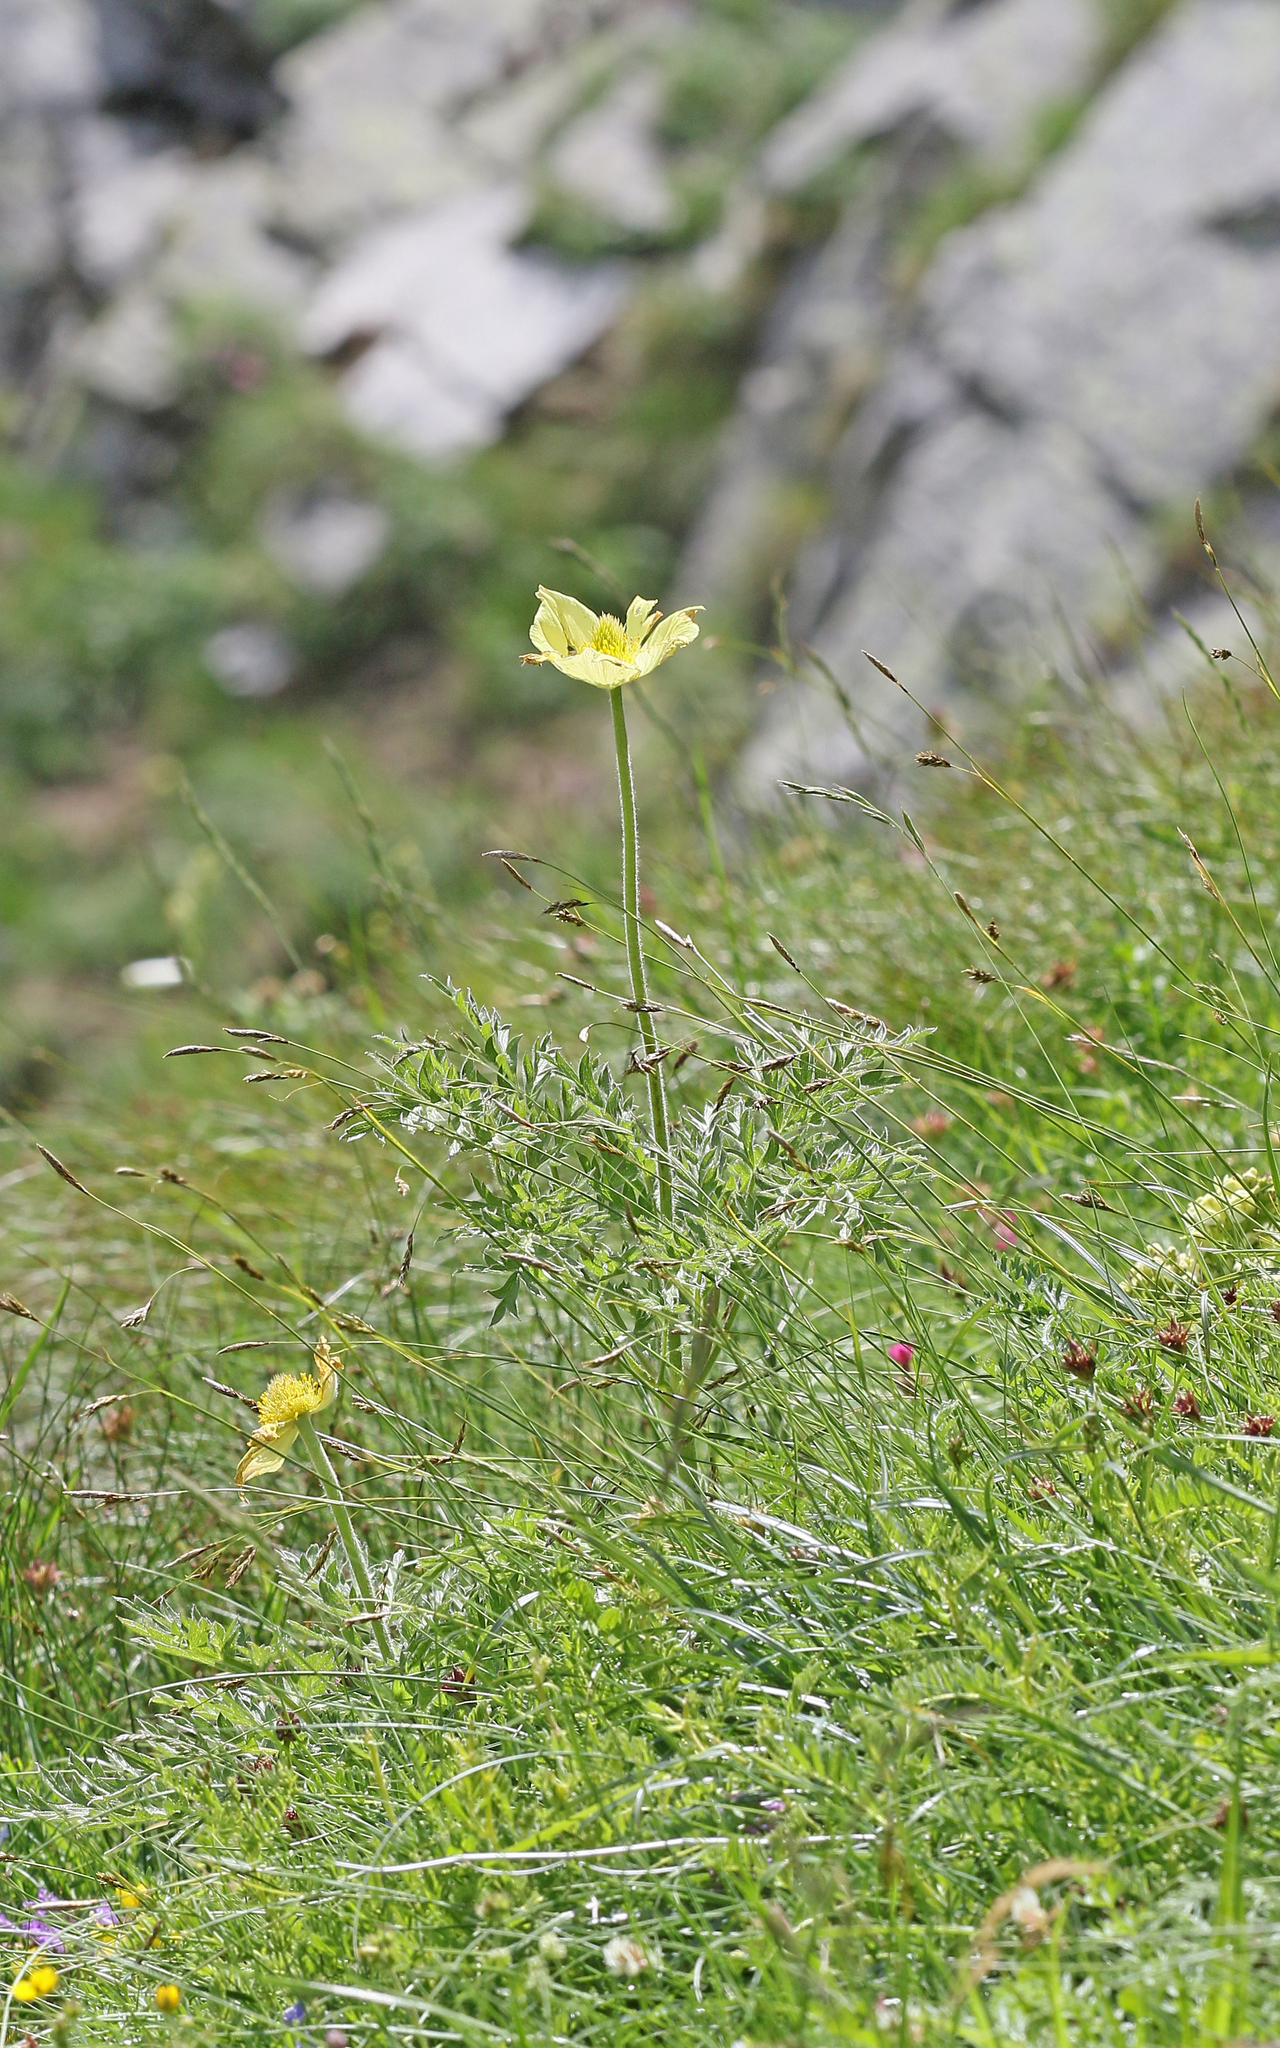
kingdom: Plantae
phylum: Tracheophyta
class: Magnoliopsida
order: Ranunculales
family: Ranunculaceae
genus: Pulsatilla
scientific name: Pulsatilla alpina
